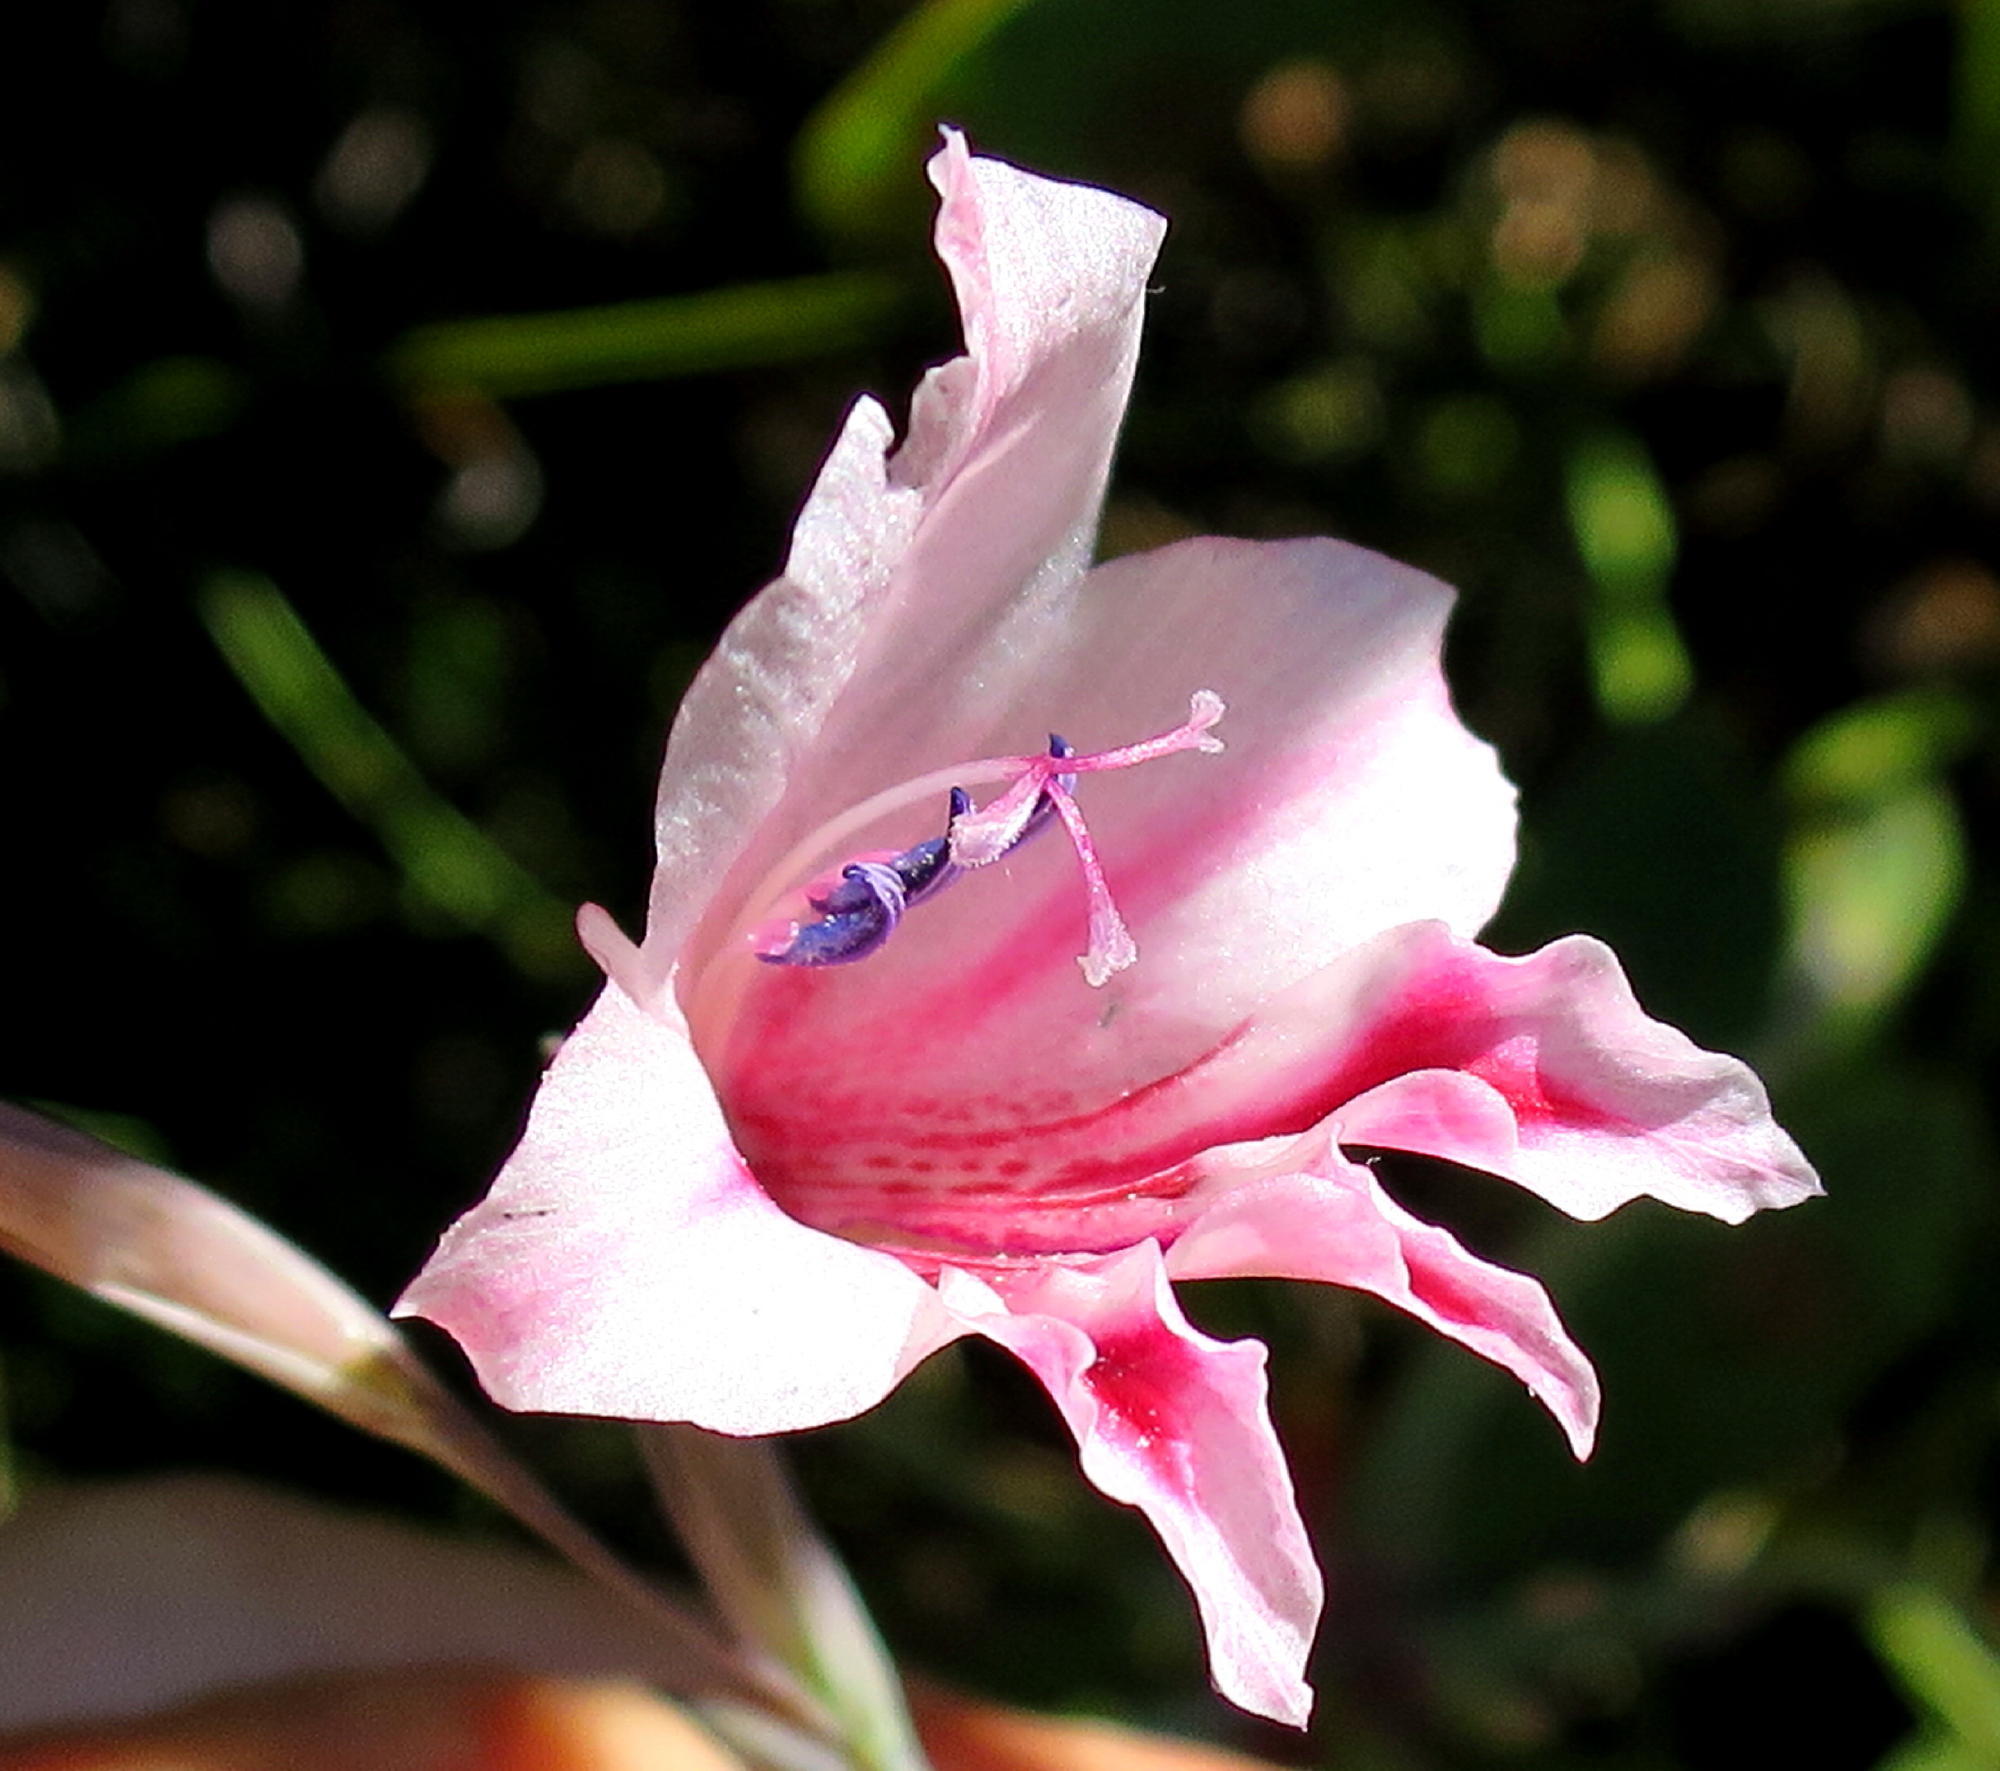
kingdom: Plantae
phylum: Tracheophyta
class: Liliopsida
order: Asparagales
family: Iridaceae
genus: Gladiolus
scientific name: Gladiolus nigromontanus
